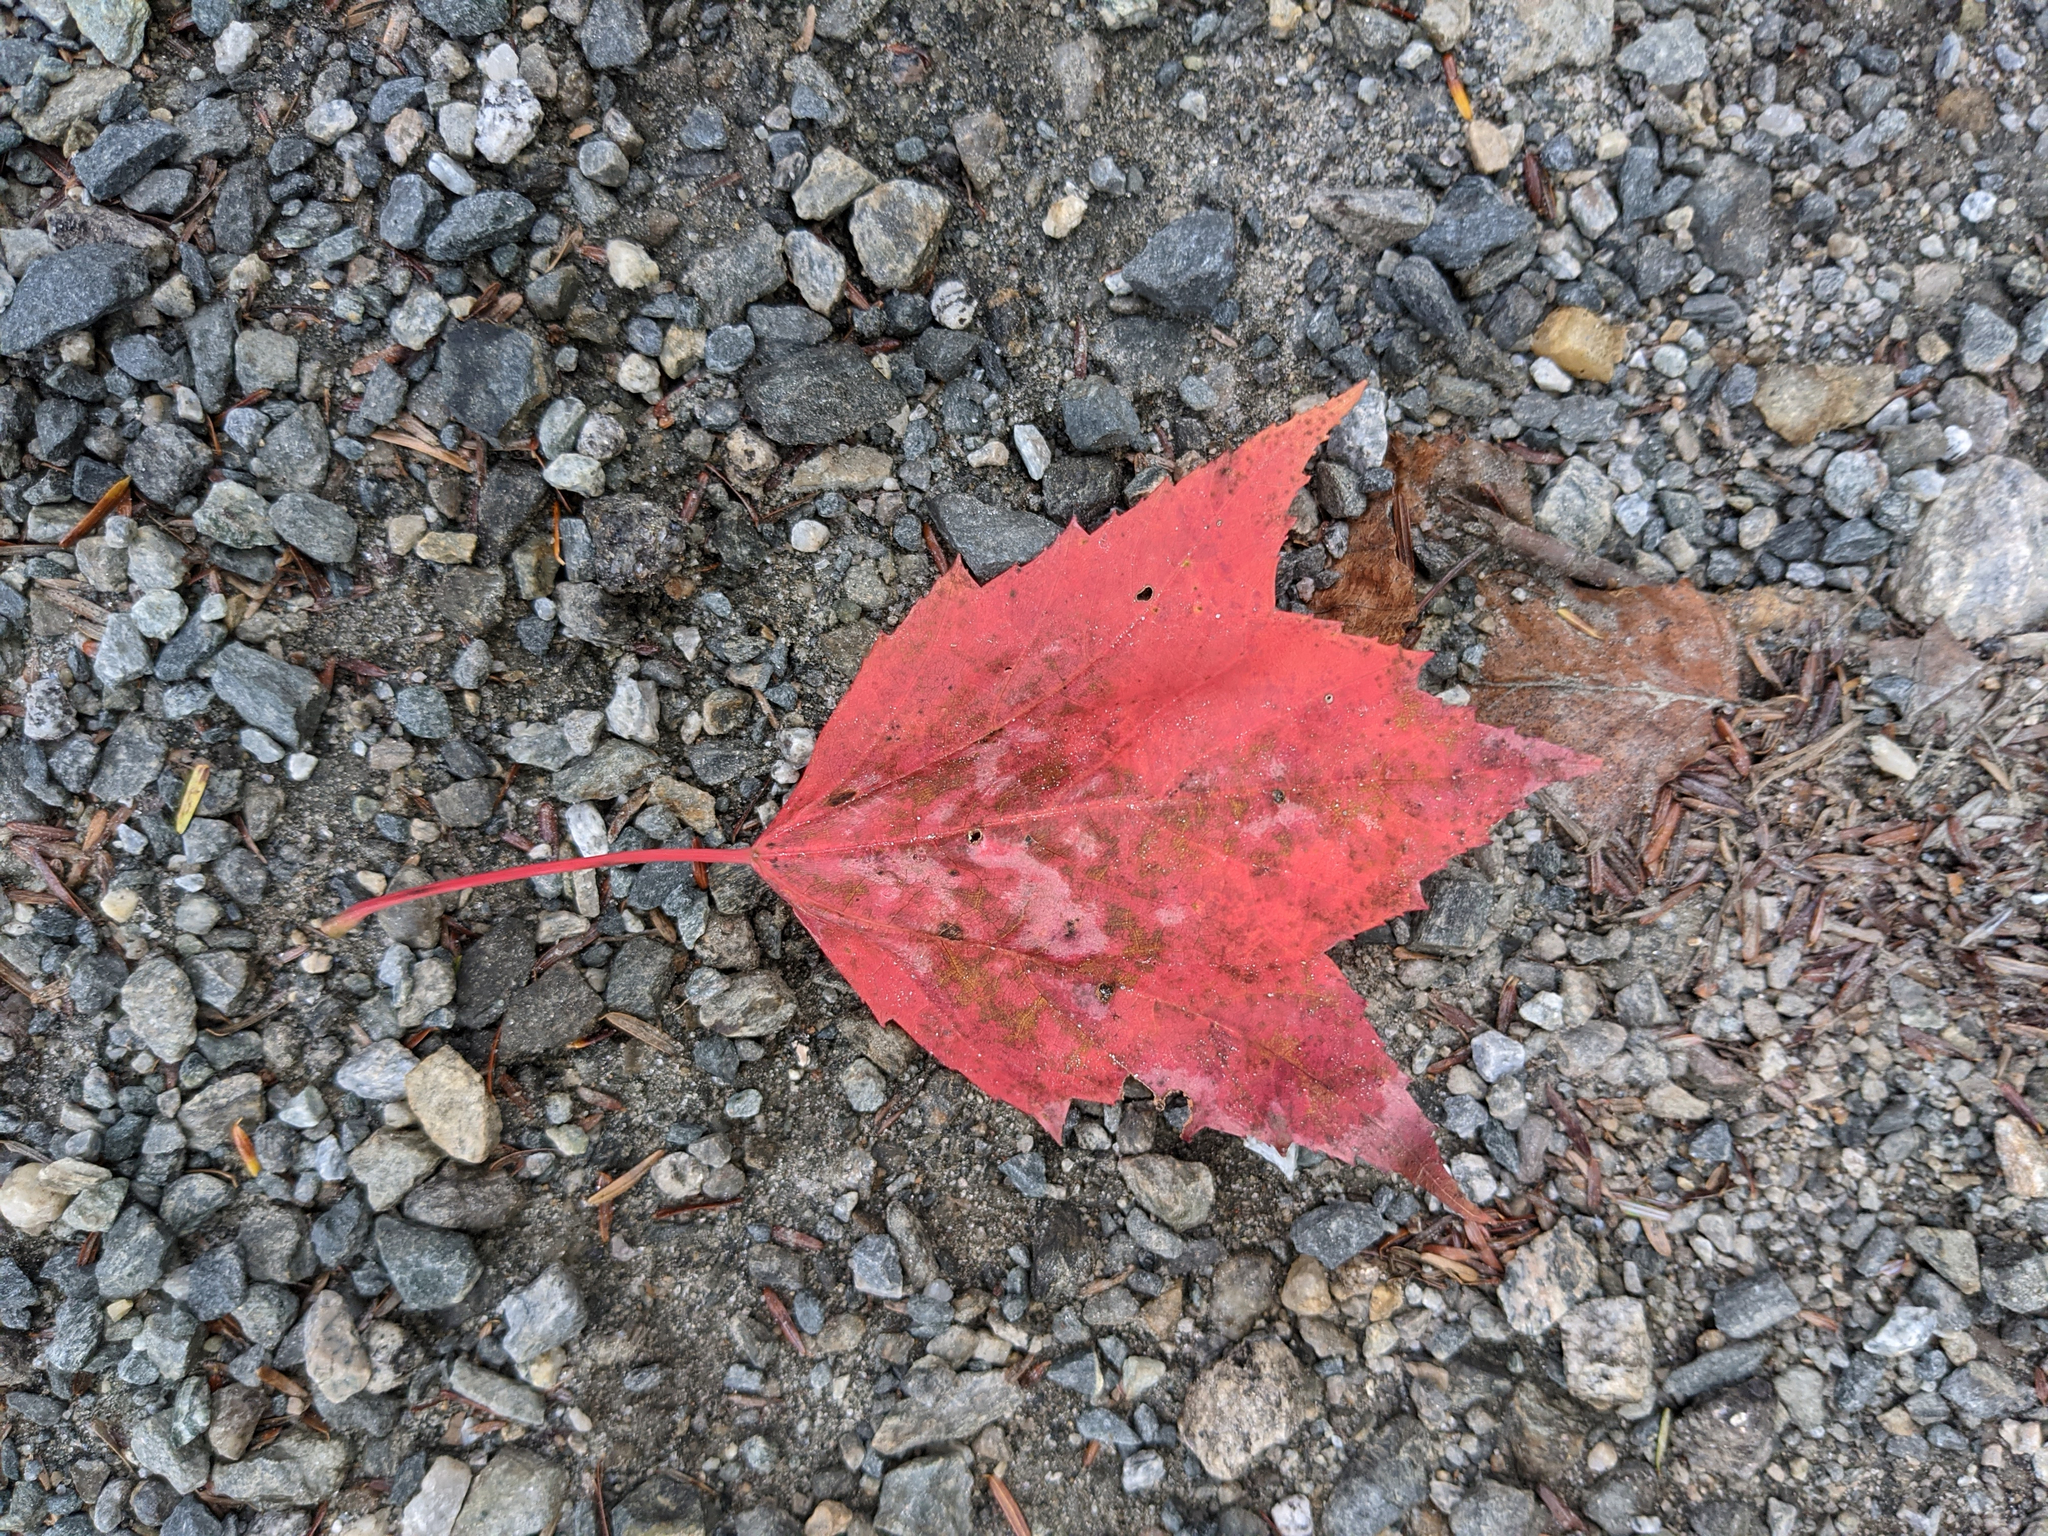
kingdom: Plantae
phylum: Tracheophyta
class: Magnoliopsida
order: Sapindales
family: Sapindaceae
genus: Acer
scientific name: Acer rubrum
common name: Red maple
